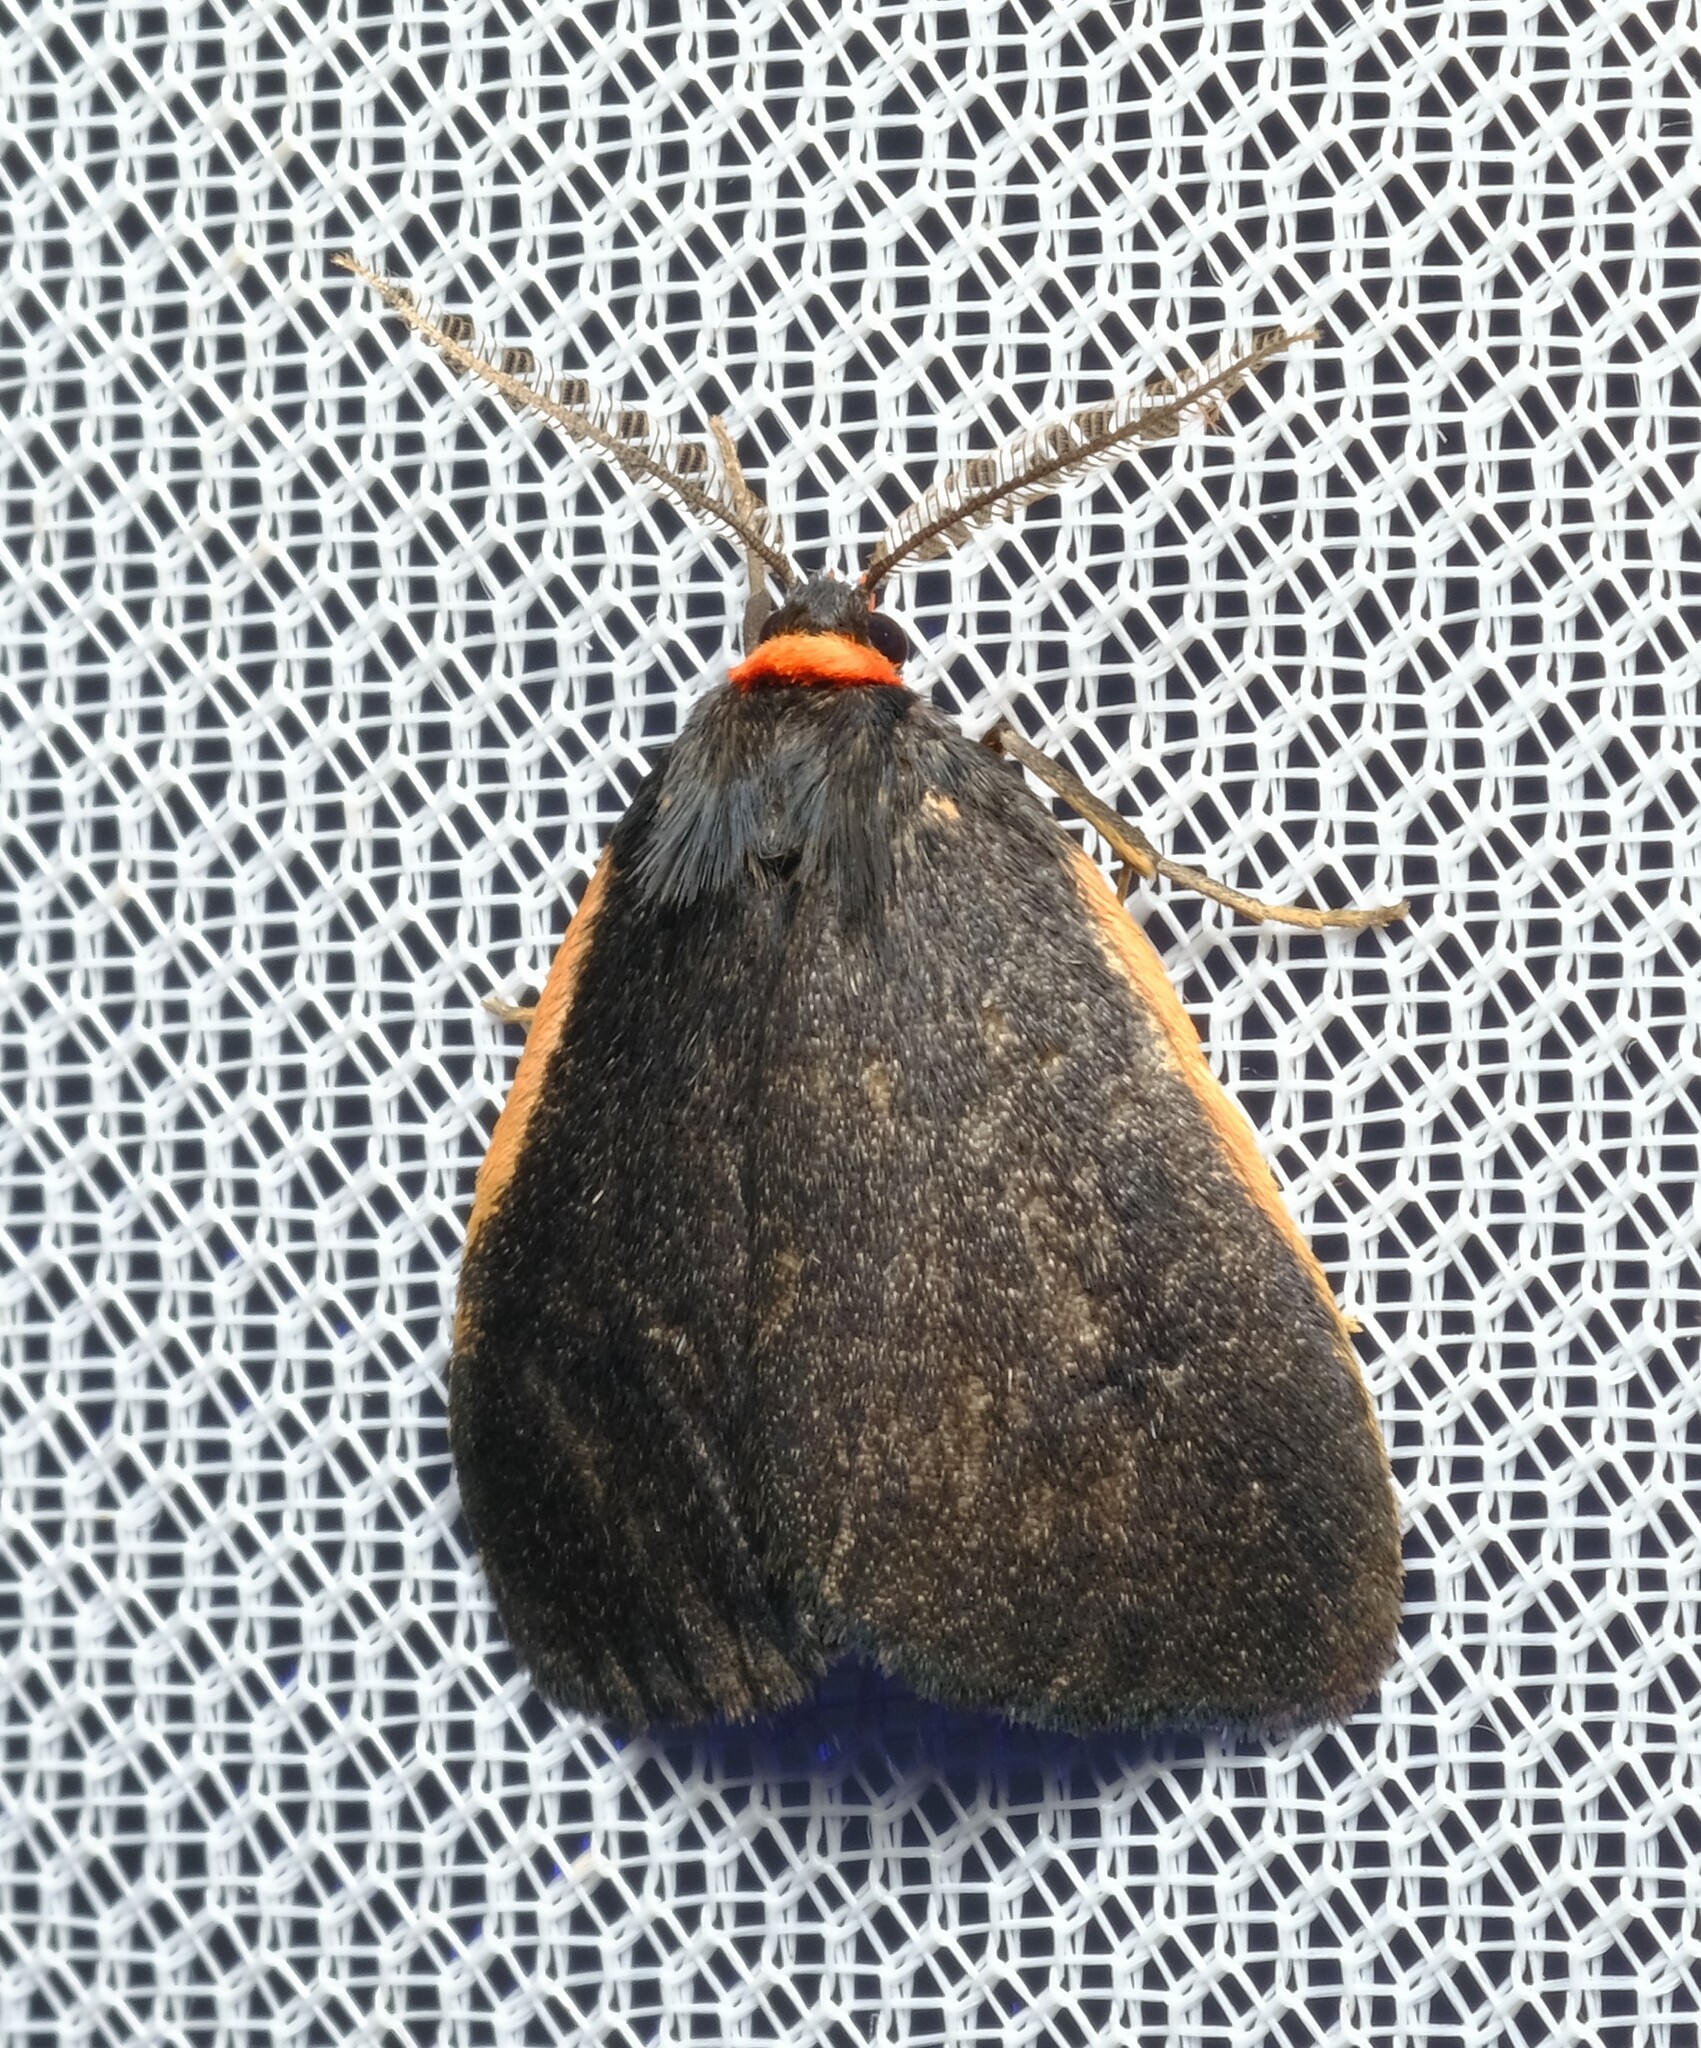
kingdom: Animalia
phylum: Arthropoda
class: Insecta
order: Lepidoptera
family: Erebidae
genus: Castulo
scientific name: Castulo doubledayi
